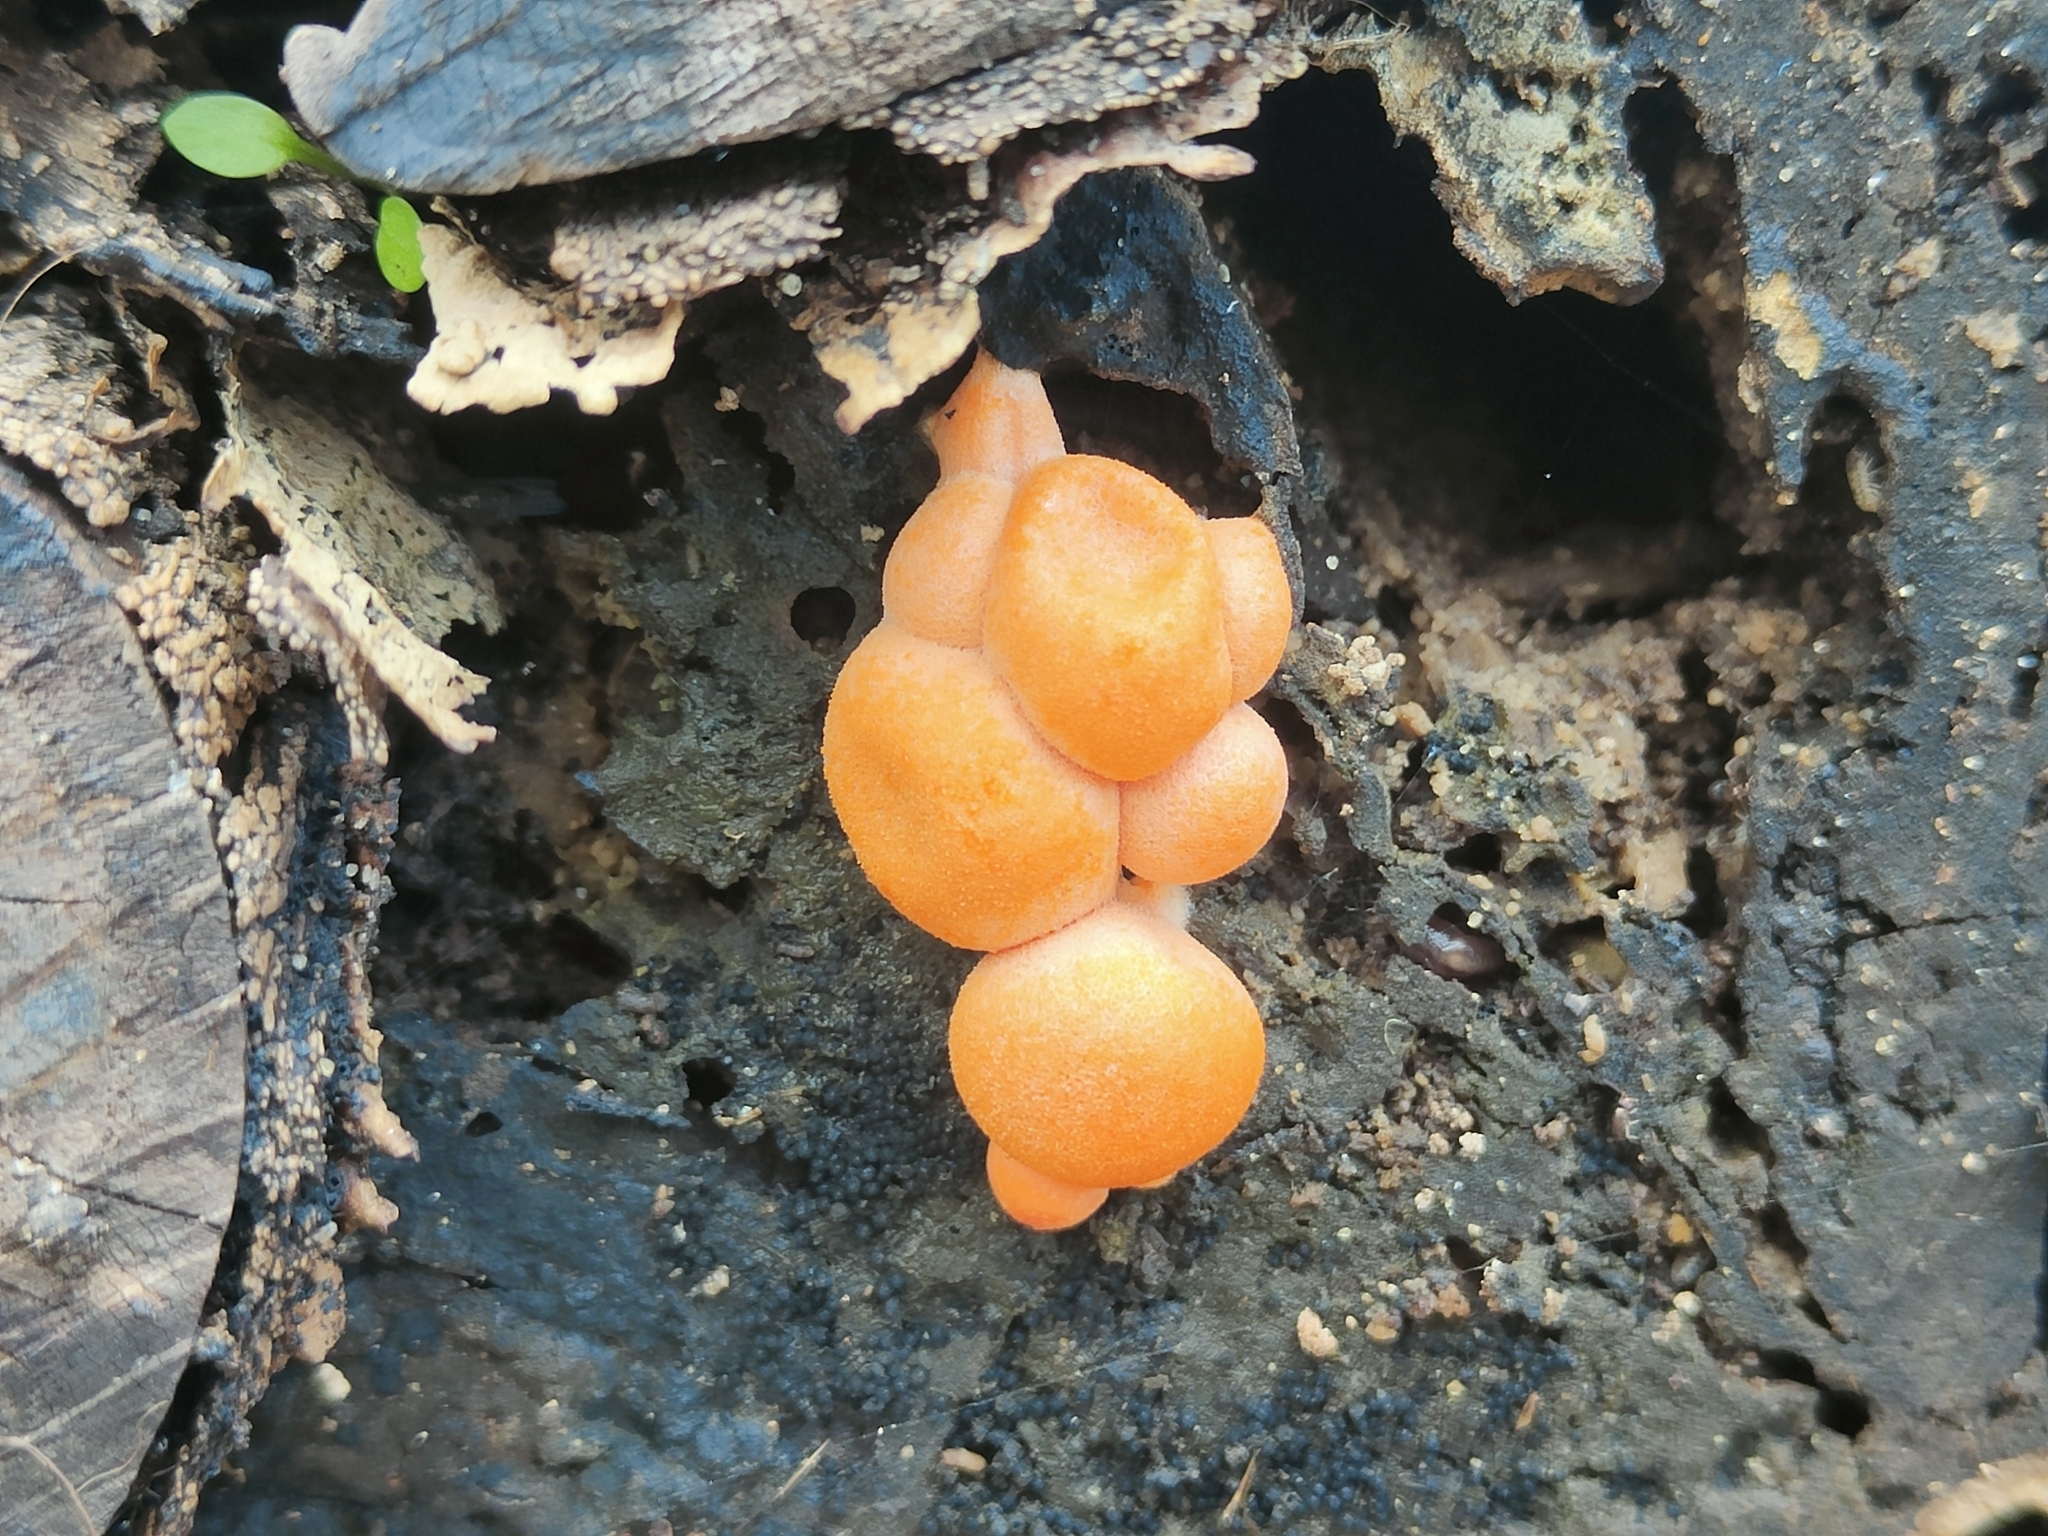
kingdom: Protozoa
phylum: Mycetozoa
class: Myxomycetes
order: Cribrariales
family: Tubiferaceae
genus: Lycogala
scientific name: Lycogala epidendrum
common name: Wolf's milk
